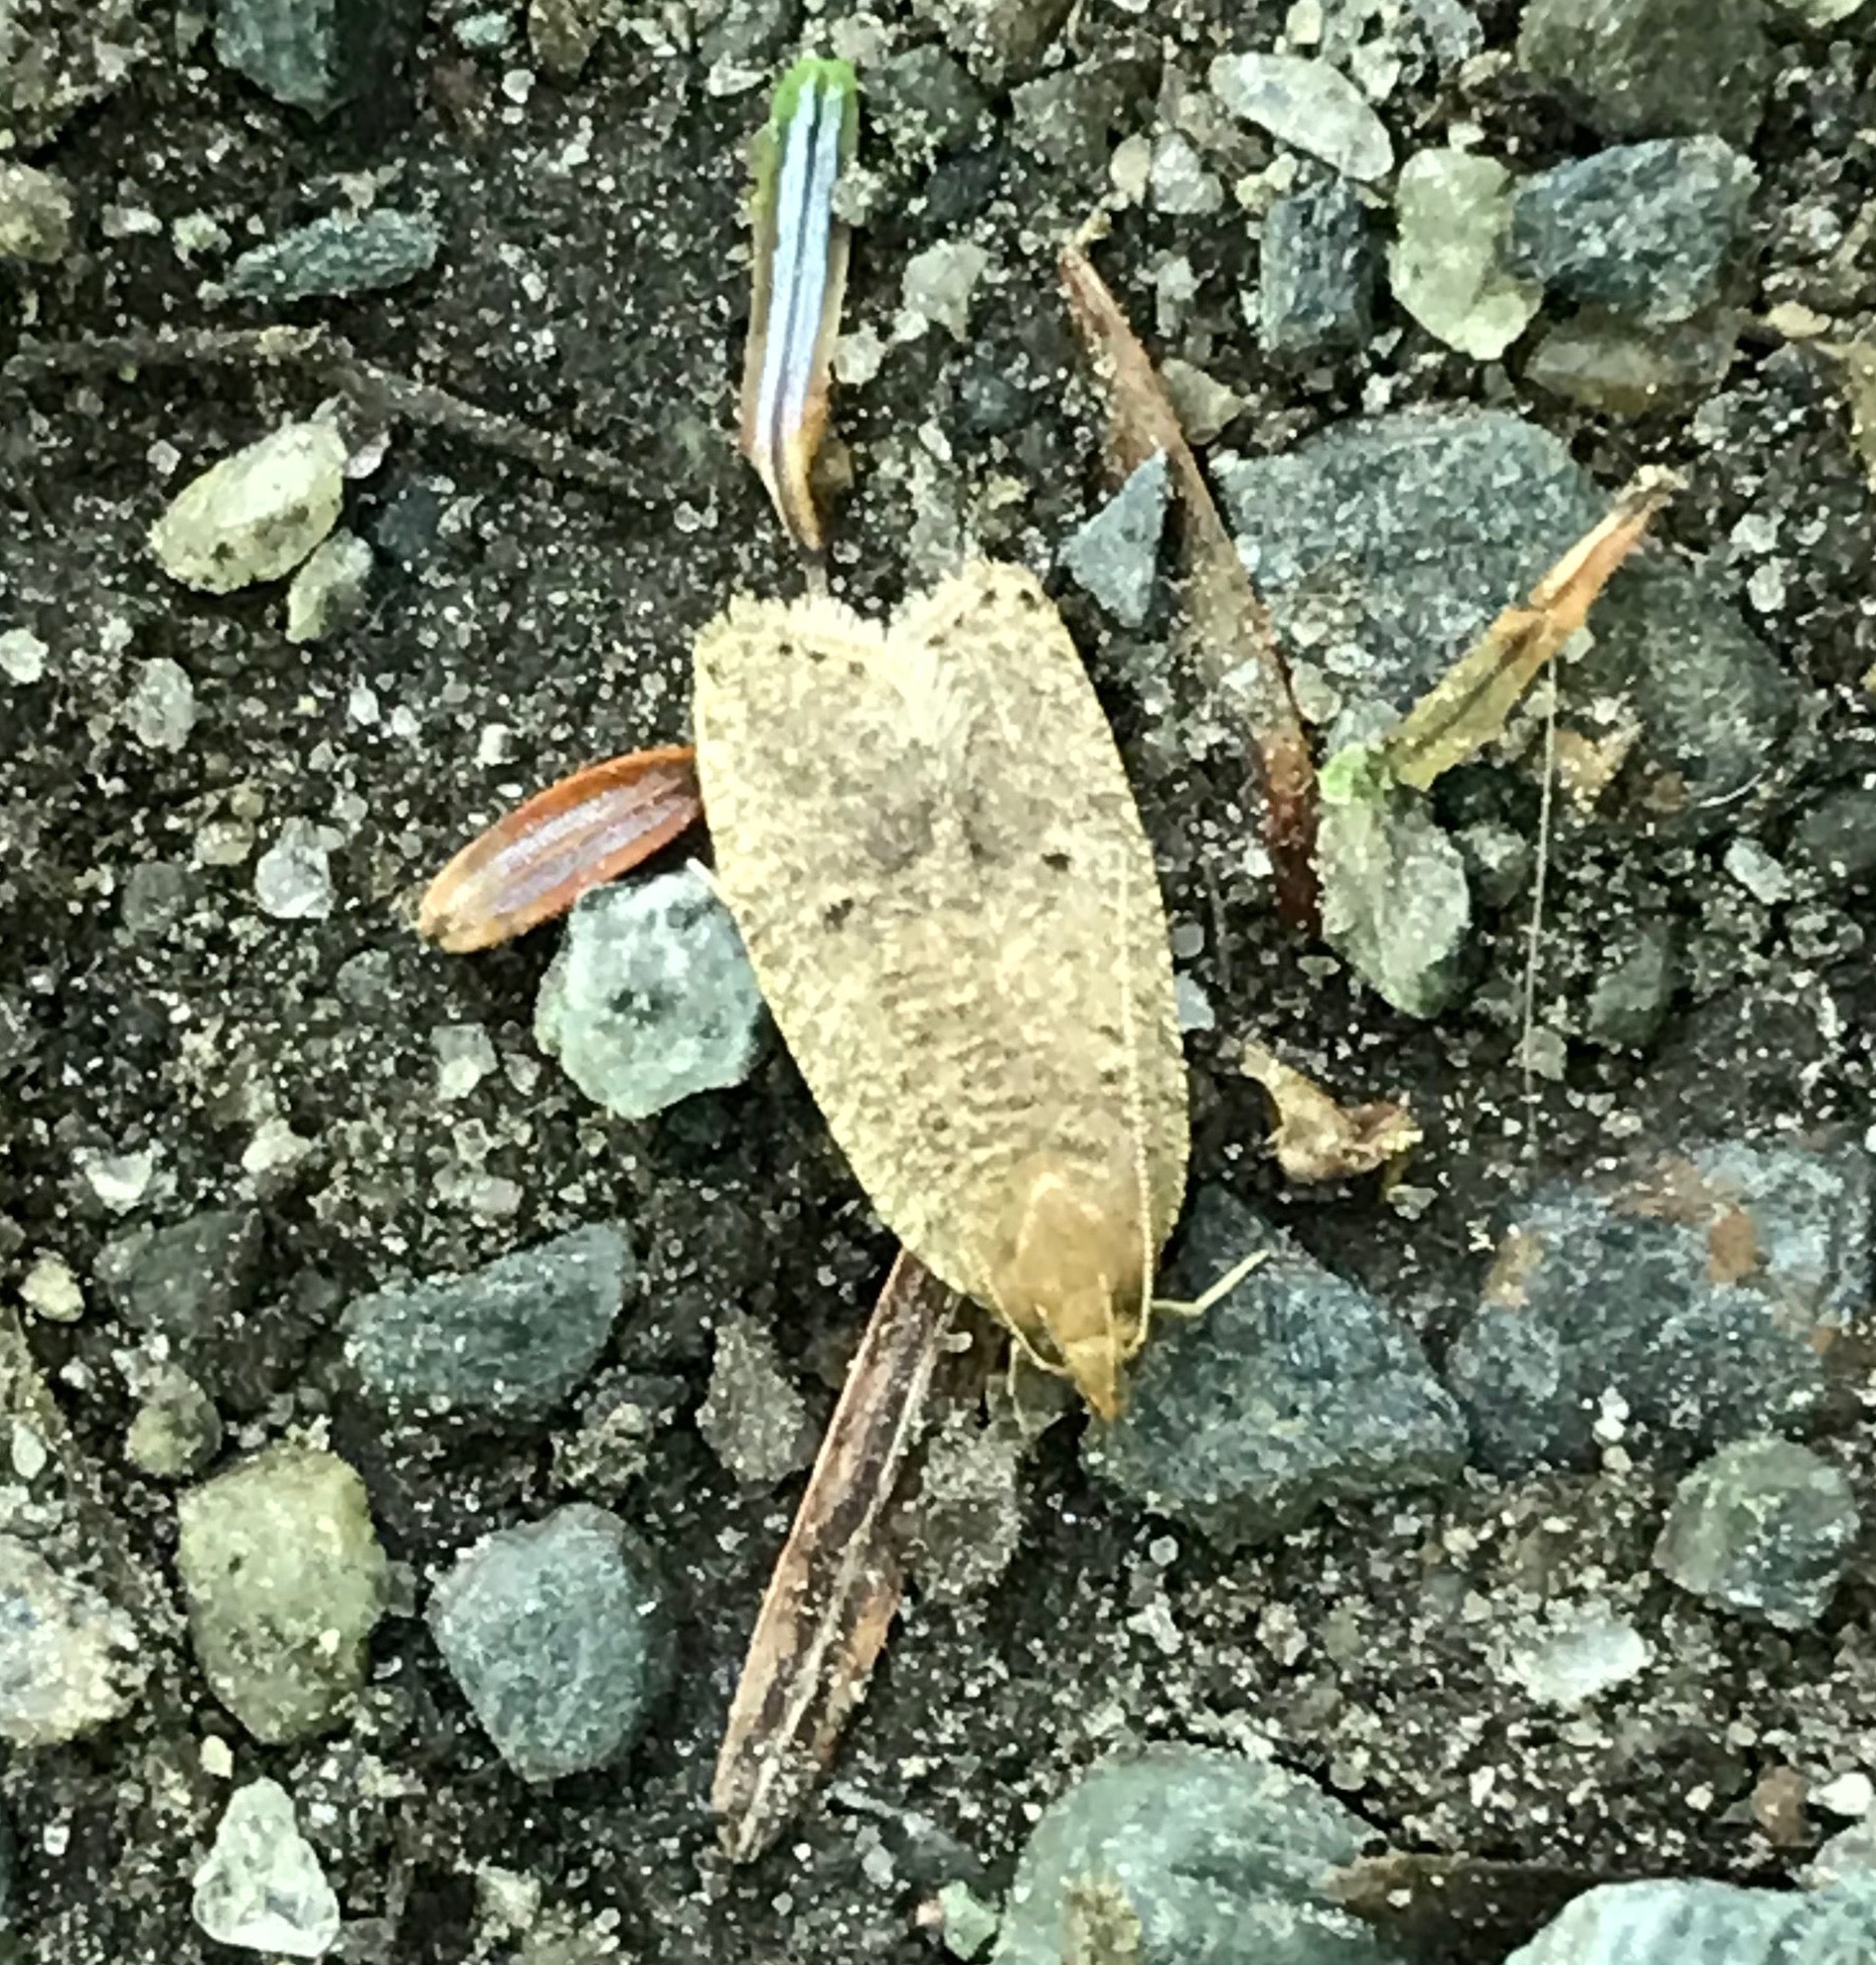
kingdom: Animalia
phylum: Arthropoda
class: Insecta
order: Lepidoptera
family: Depressariidae
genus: Psilocorsis
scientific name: Psilocorsis reflexella
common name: Dotted leaftier moth
